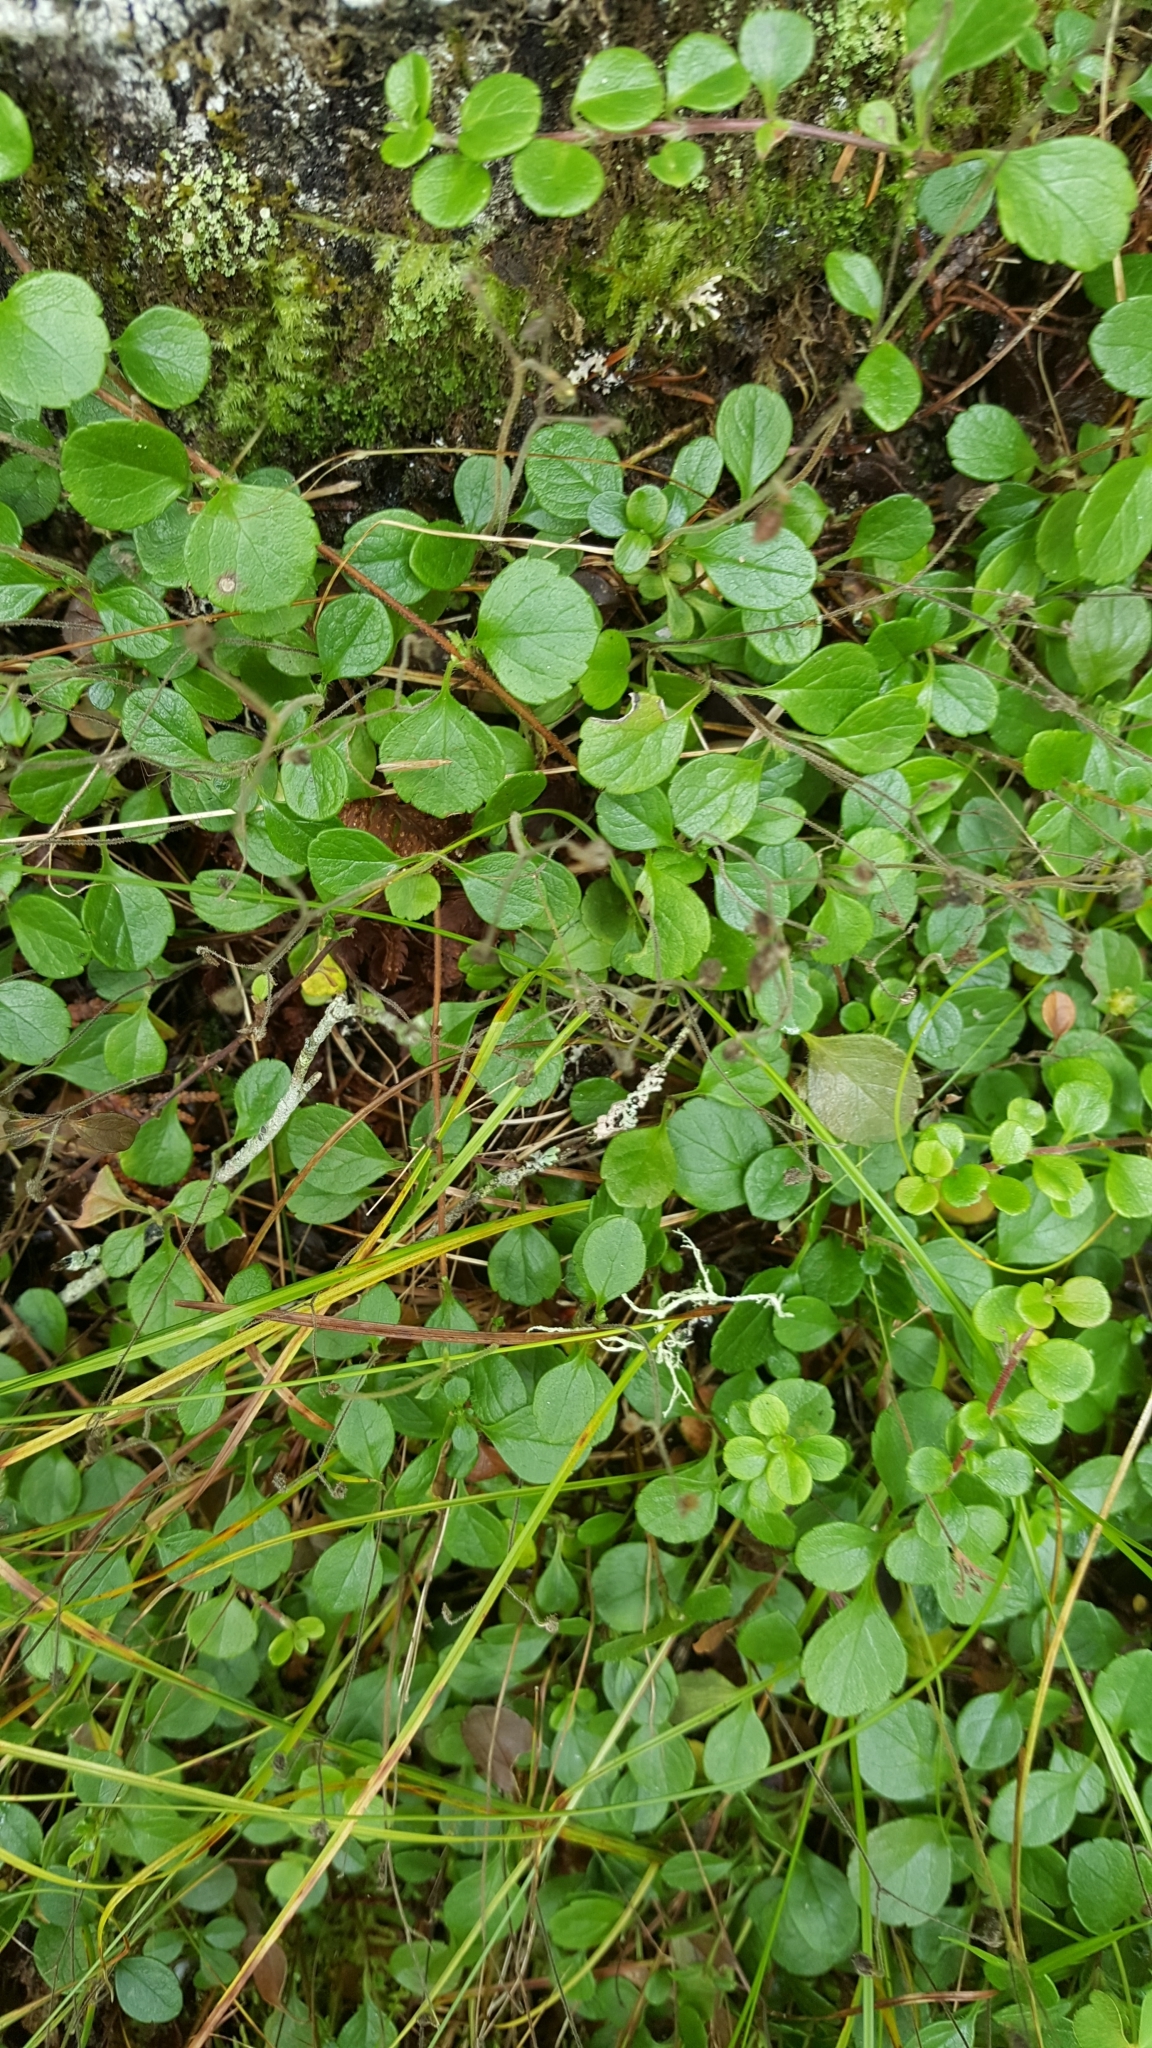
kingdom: Plantae
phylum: Tracheophyta
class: Magnoliopsida
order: Dipsacales
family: Caprifoliaceae
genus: Linnaea
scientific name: Linnaea borealis
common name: Twinflower
